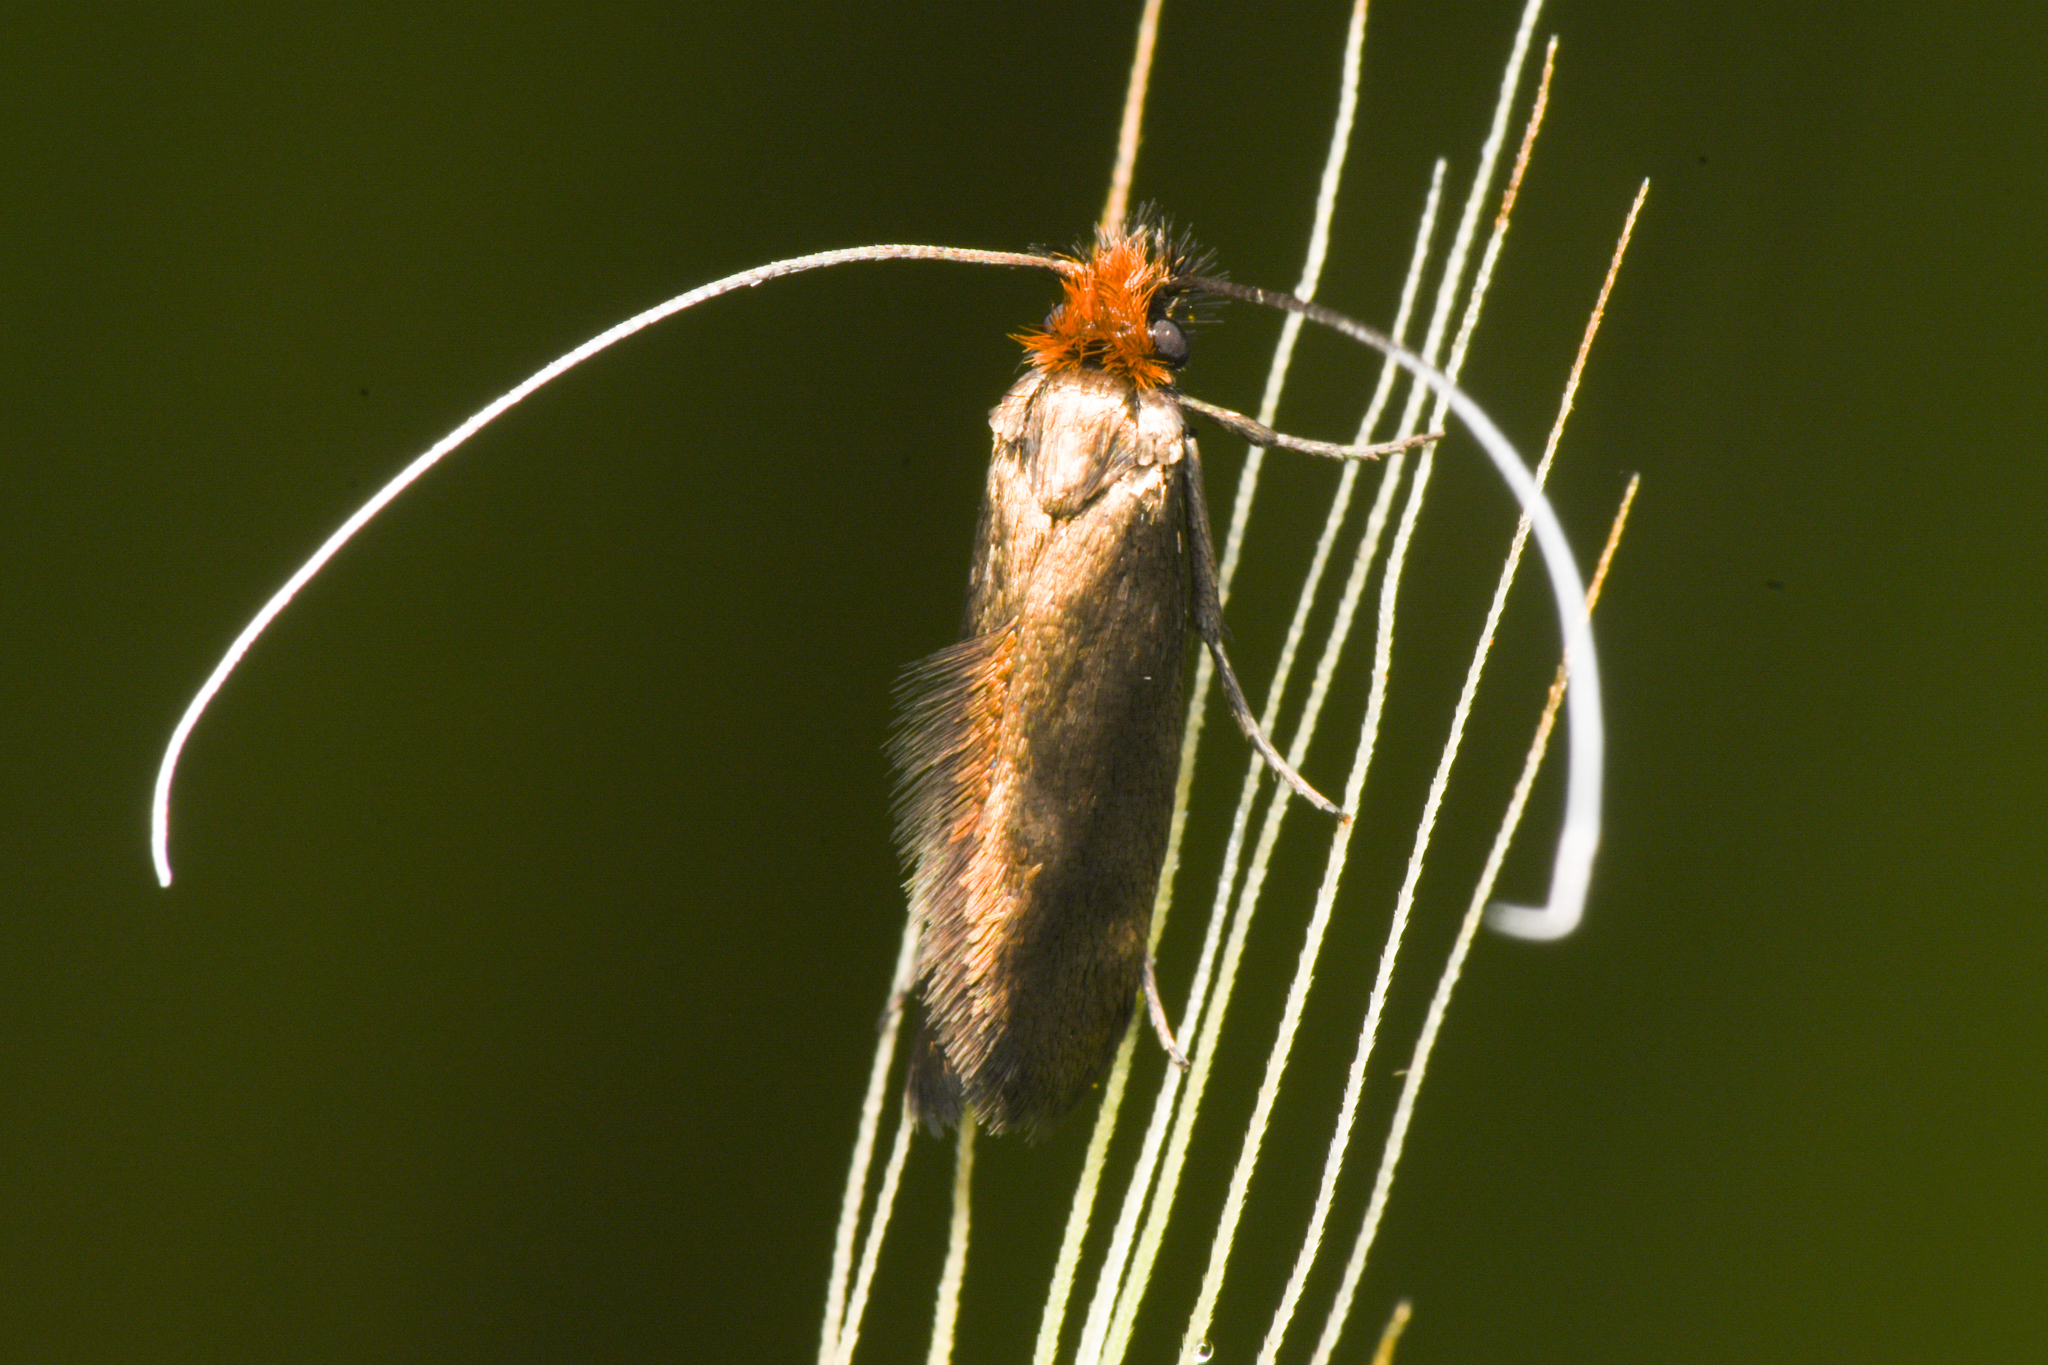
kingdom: Animalia
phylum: Arthropoda
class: Insecta
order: Lepidoptera
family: Adelidae
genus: Adela
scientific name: Adela flammeusella
